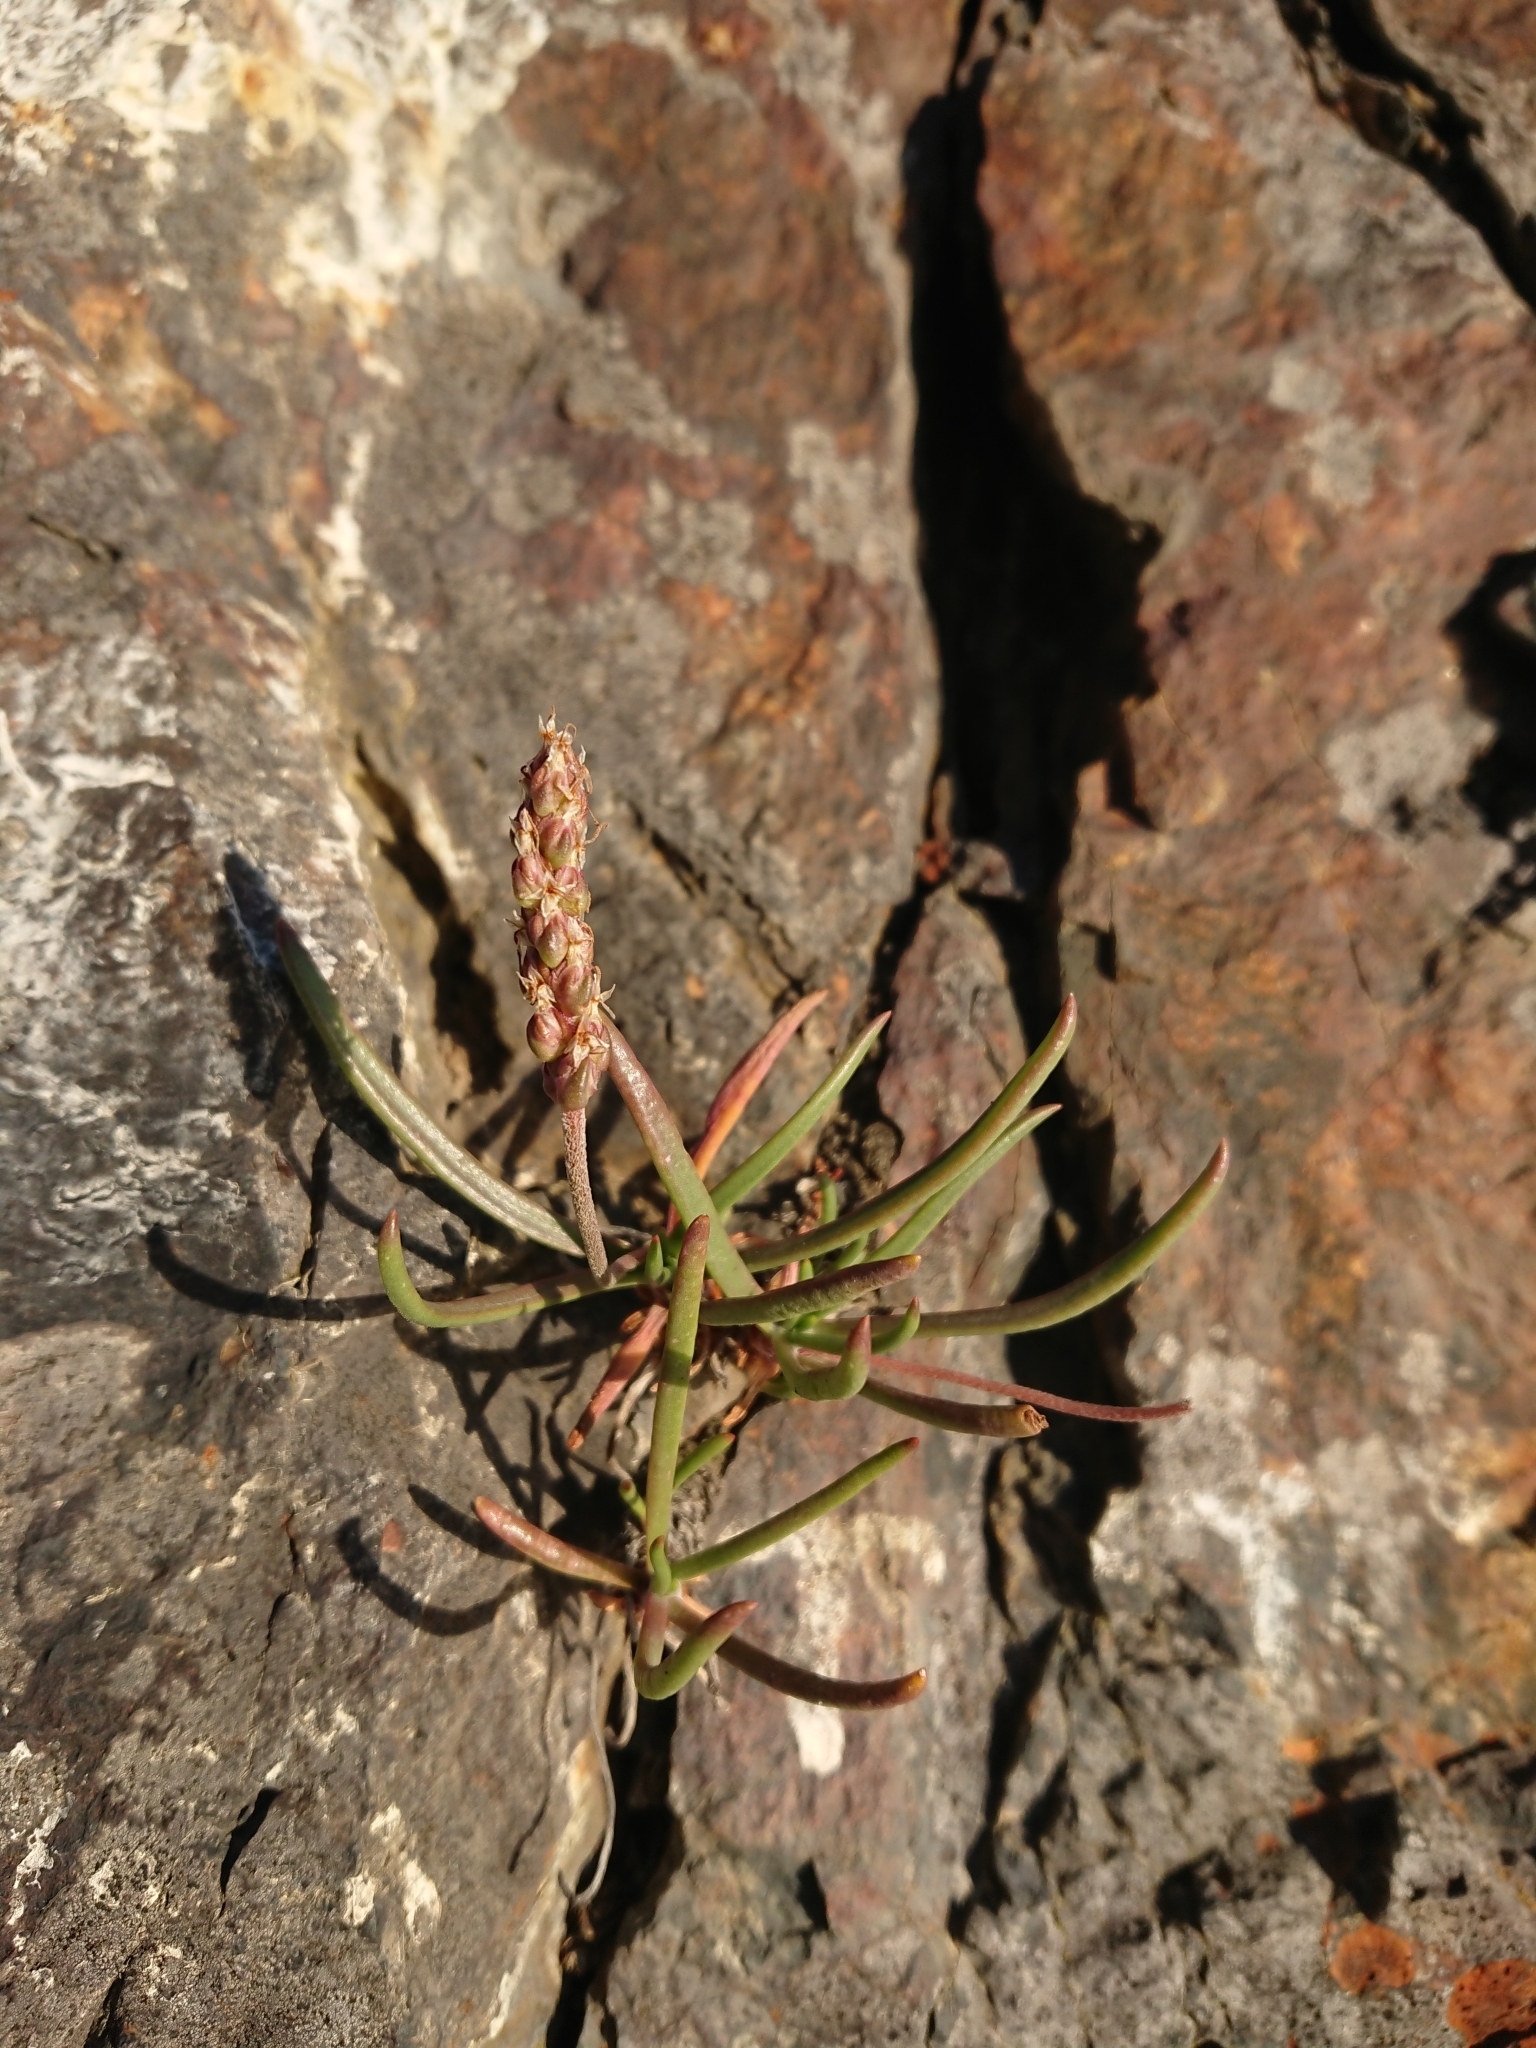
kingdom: Plantae
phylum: Tracheophyta
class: Magnoliopsida
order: Lamiales
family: Plantaginaceae
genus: Plantago
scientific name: Plantago maritima
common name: Sea plantain
